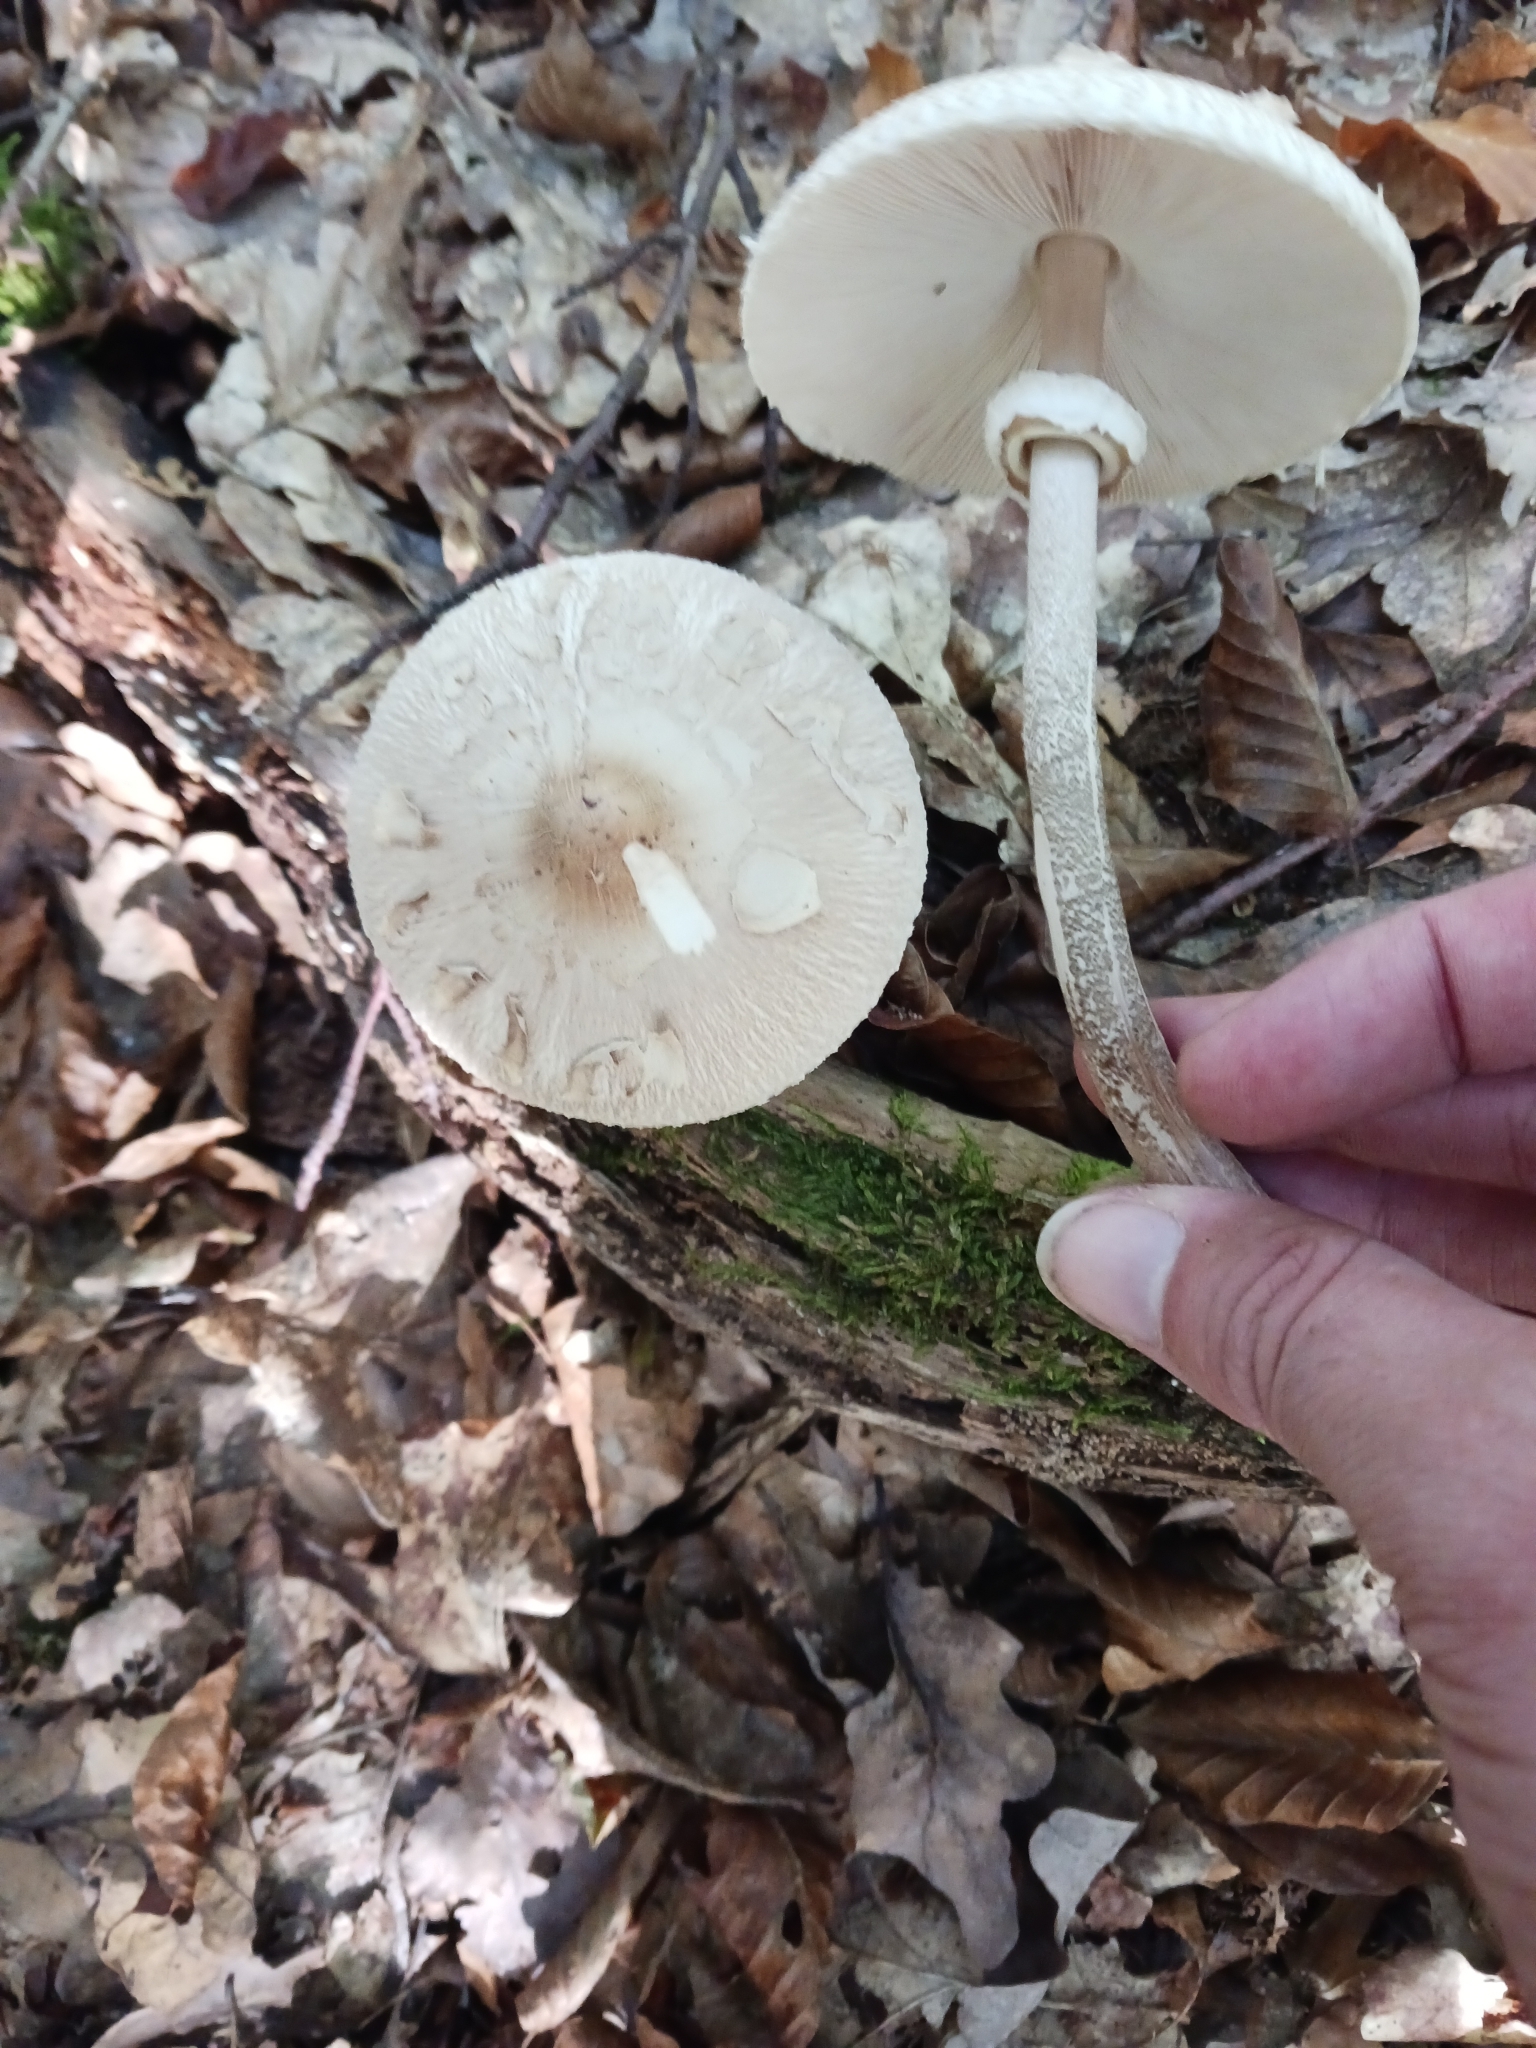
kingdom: Fungi
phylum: Basidiomycota
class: Agaricomycetes
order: Agaricales
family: Agaricaceae
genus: Macrolepiota
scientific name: Macrolepiota fuliginosa
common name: Sooty parasol
